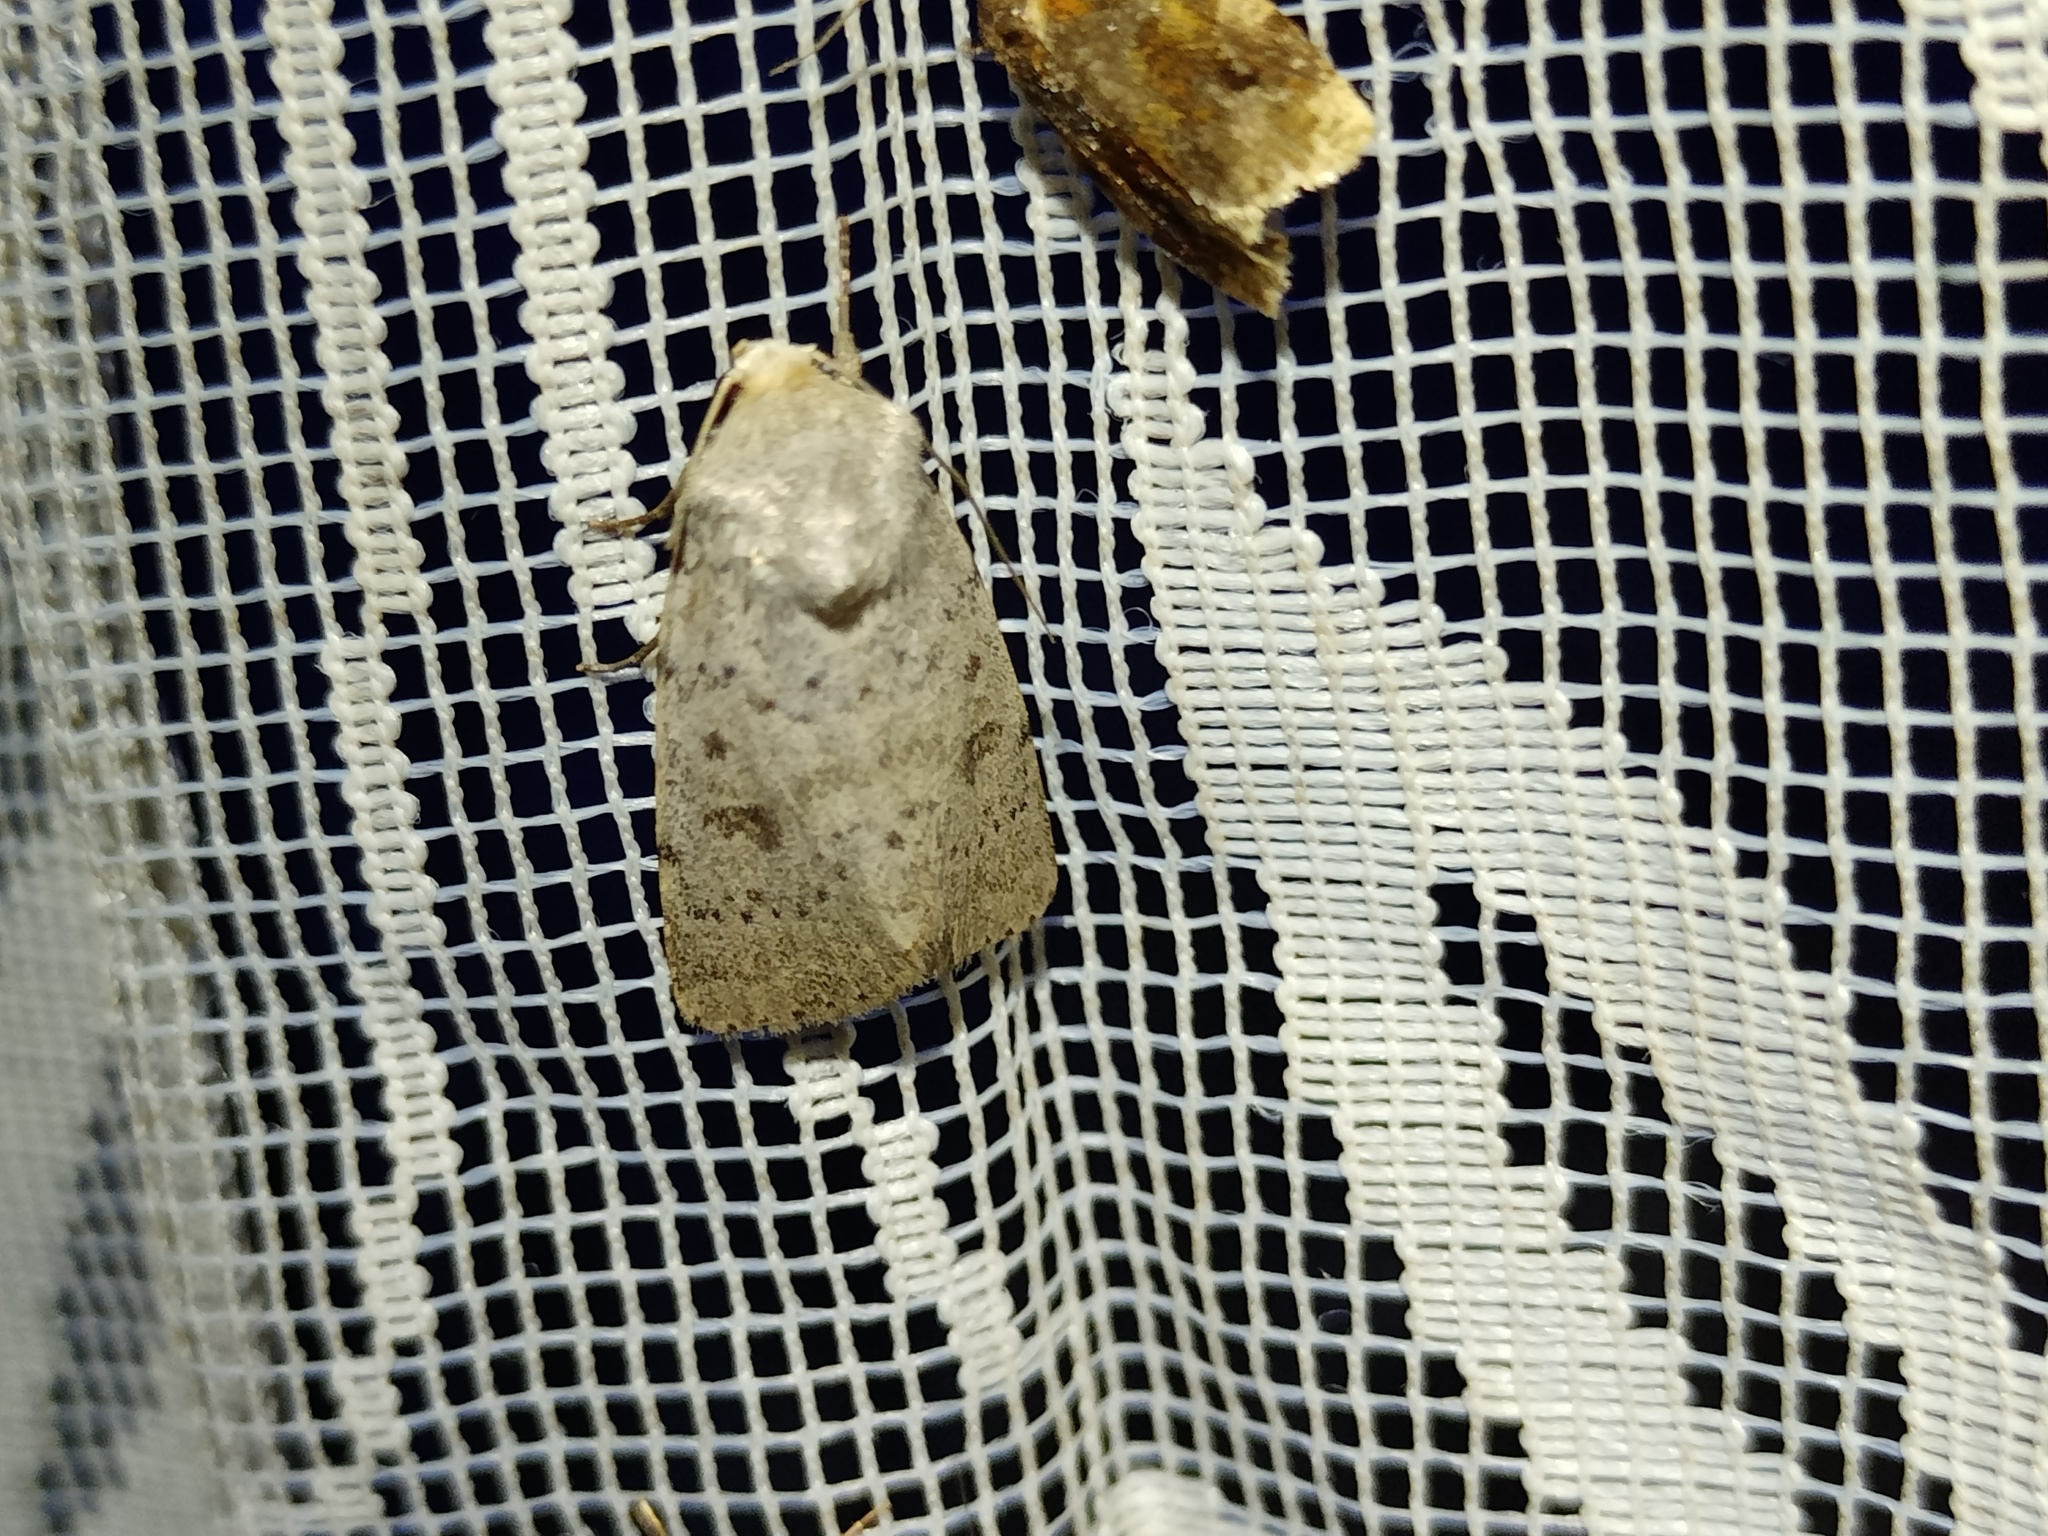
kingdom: Animalia
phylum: Arthropoda
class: Insecta
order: Lepidoptera
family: Noctuidae
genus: Hoplodrina
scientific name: Hoplodrina respersa
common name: Sprinkled rustic
